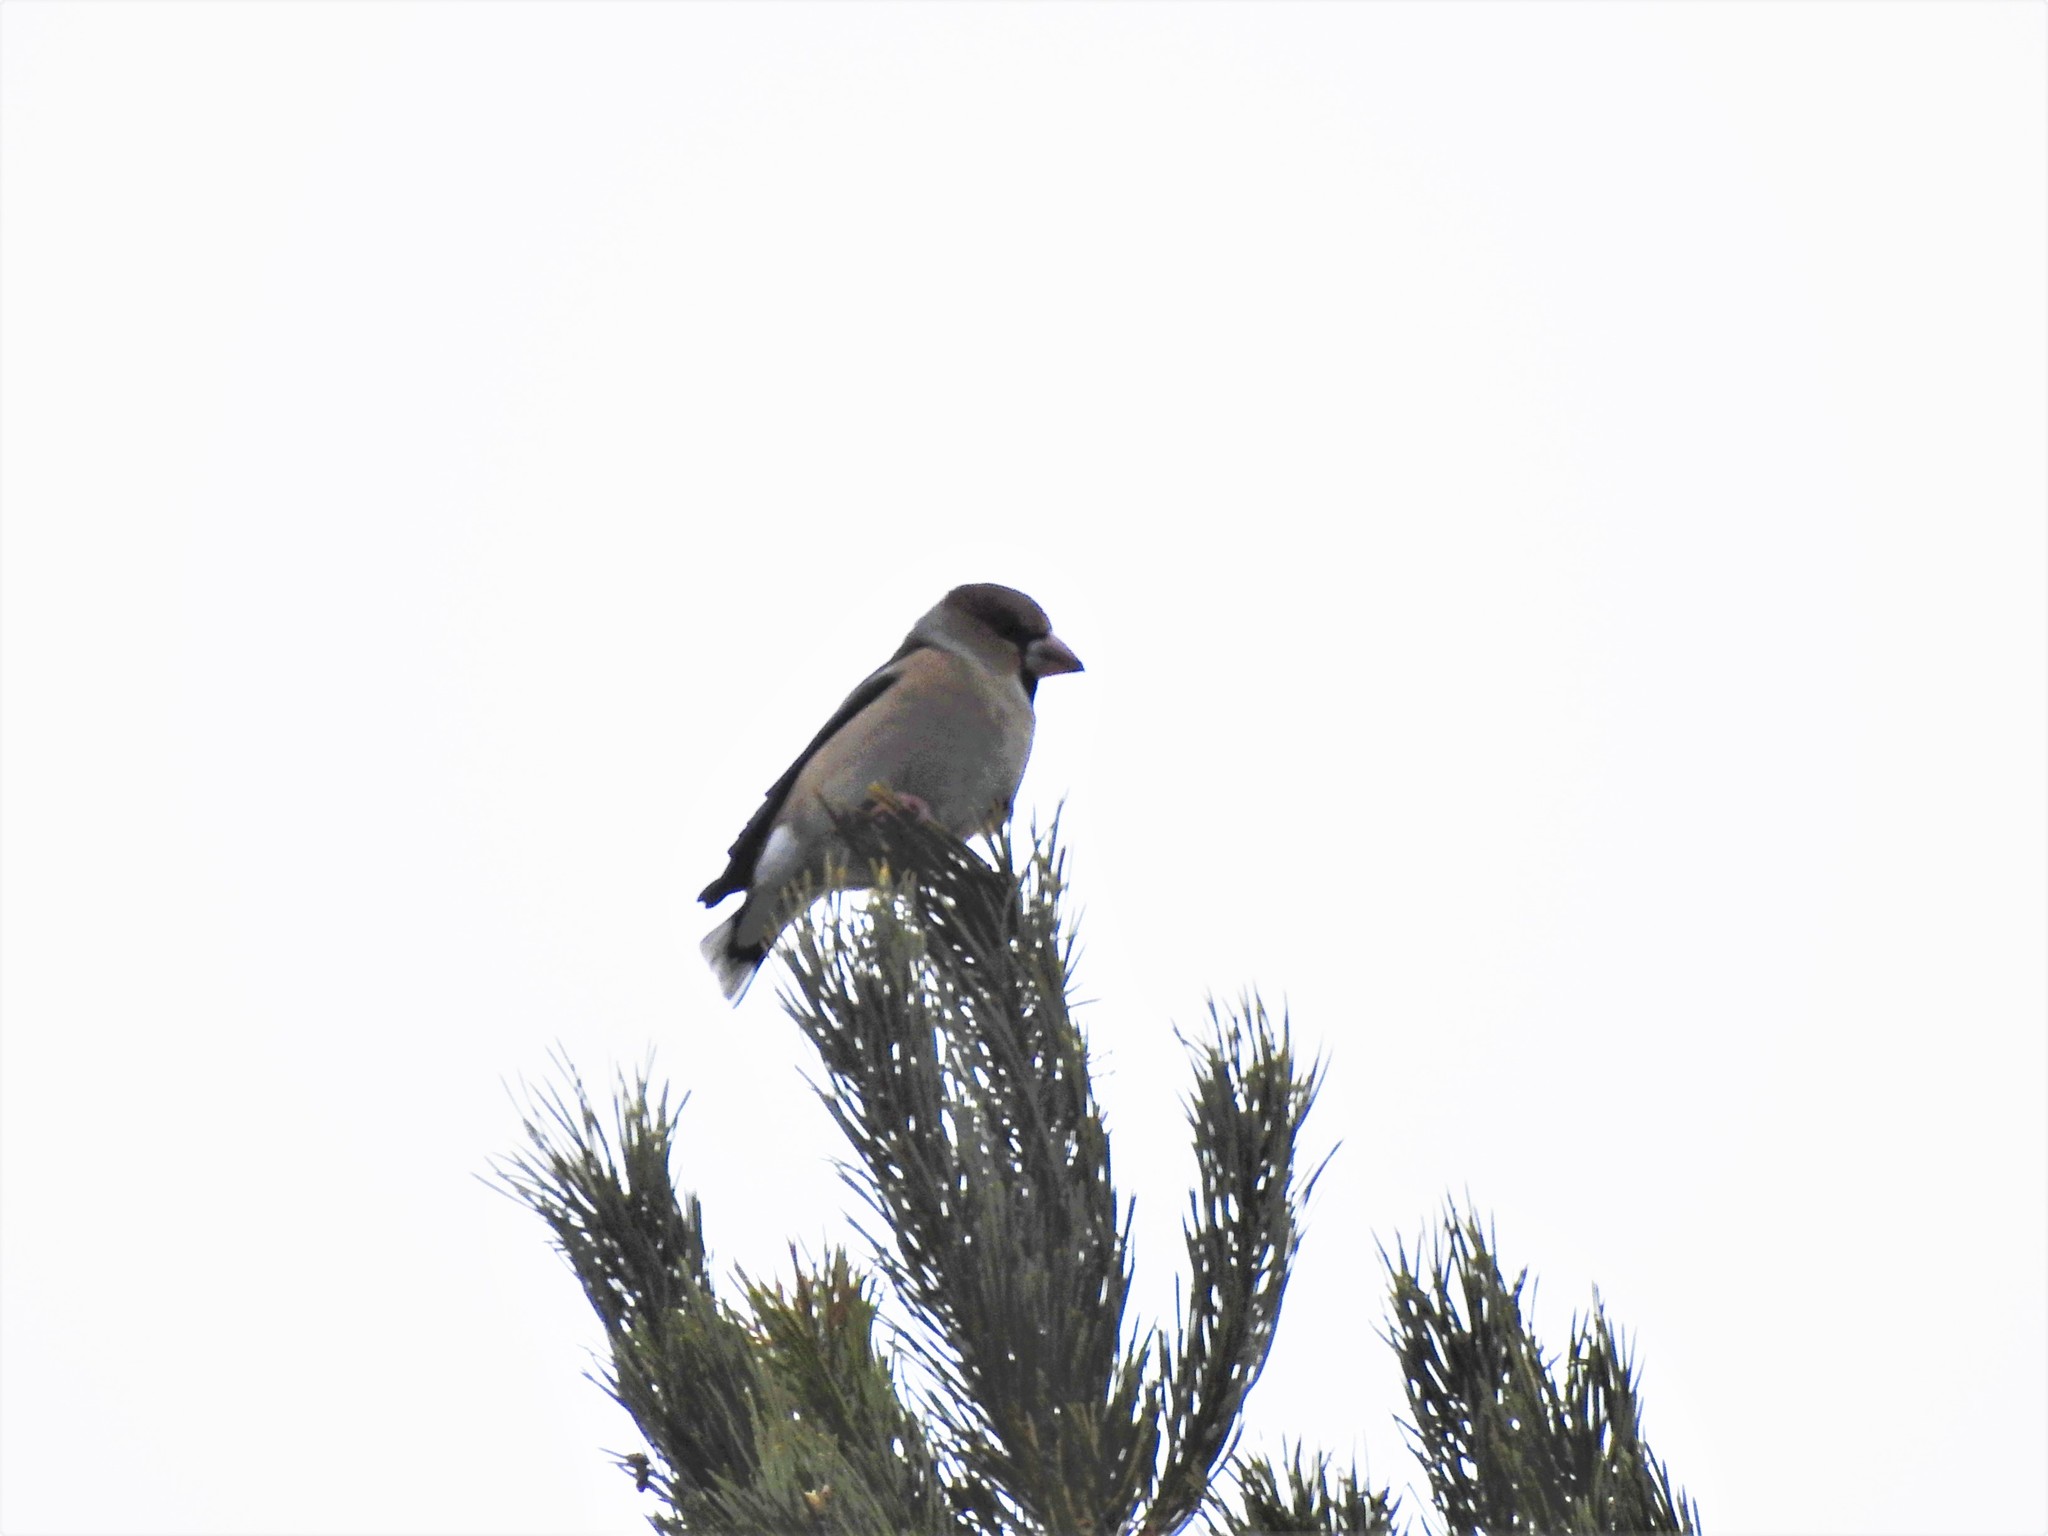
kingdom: Animalia
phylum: Chordata
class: Aves
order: Passeriformes
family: Fringillidae
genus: Coccothraustes
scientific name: Coccothraustes coccothraustes
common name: Hawfinch
